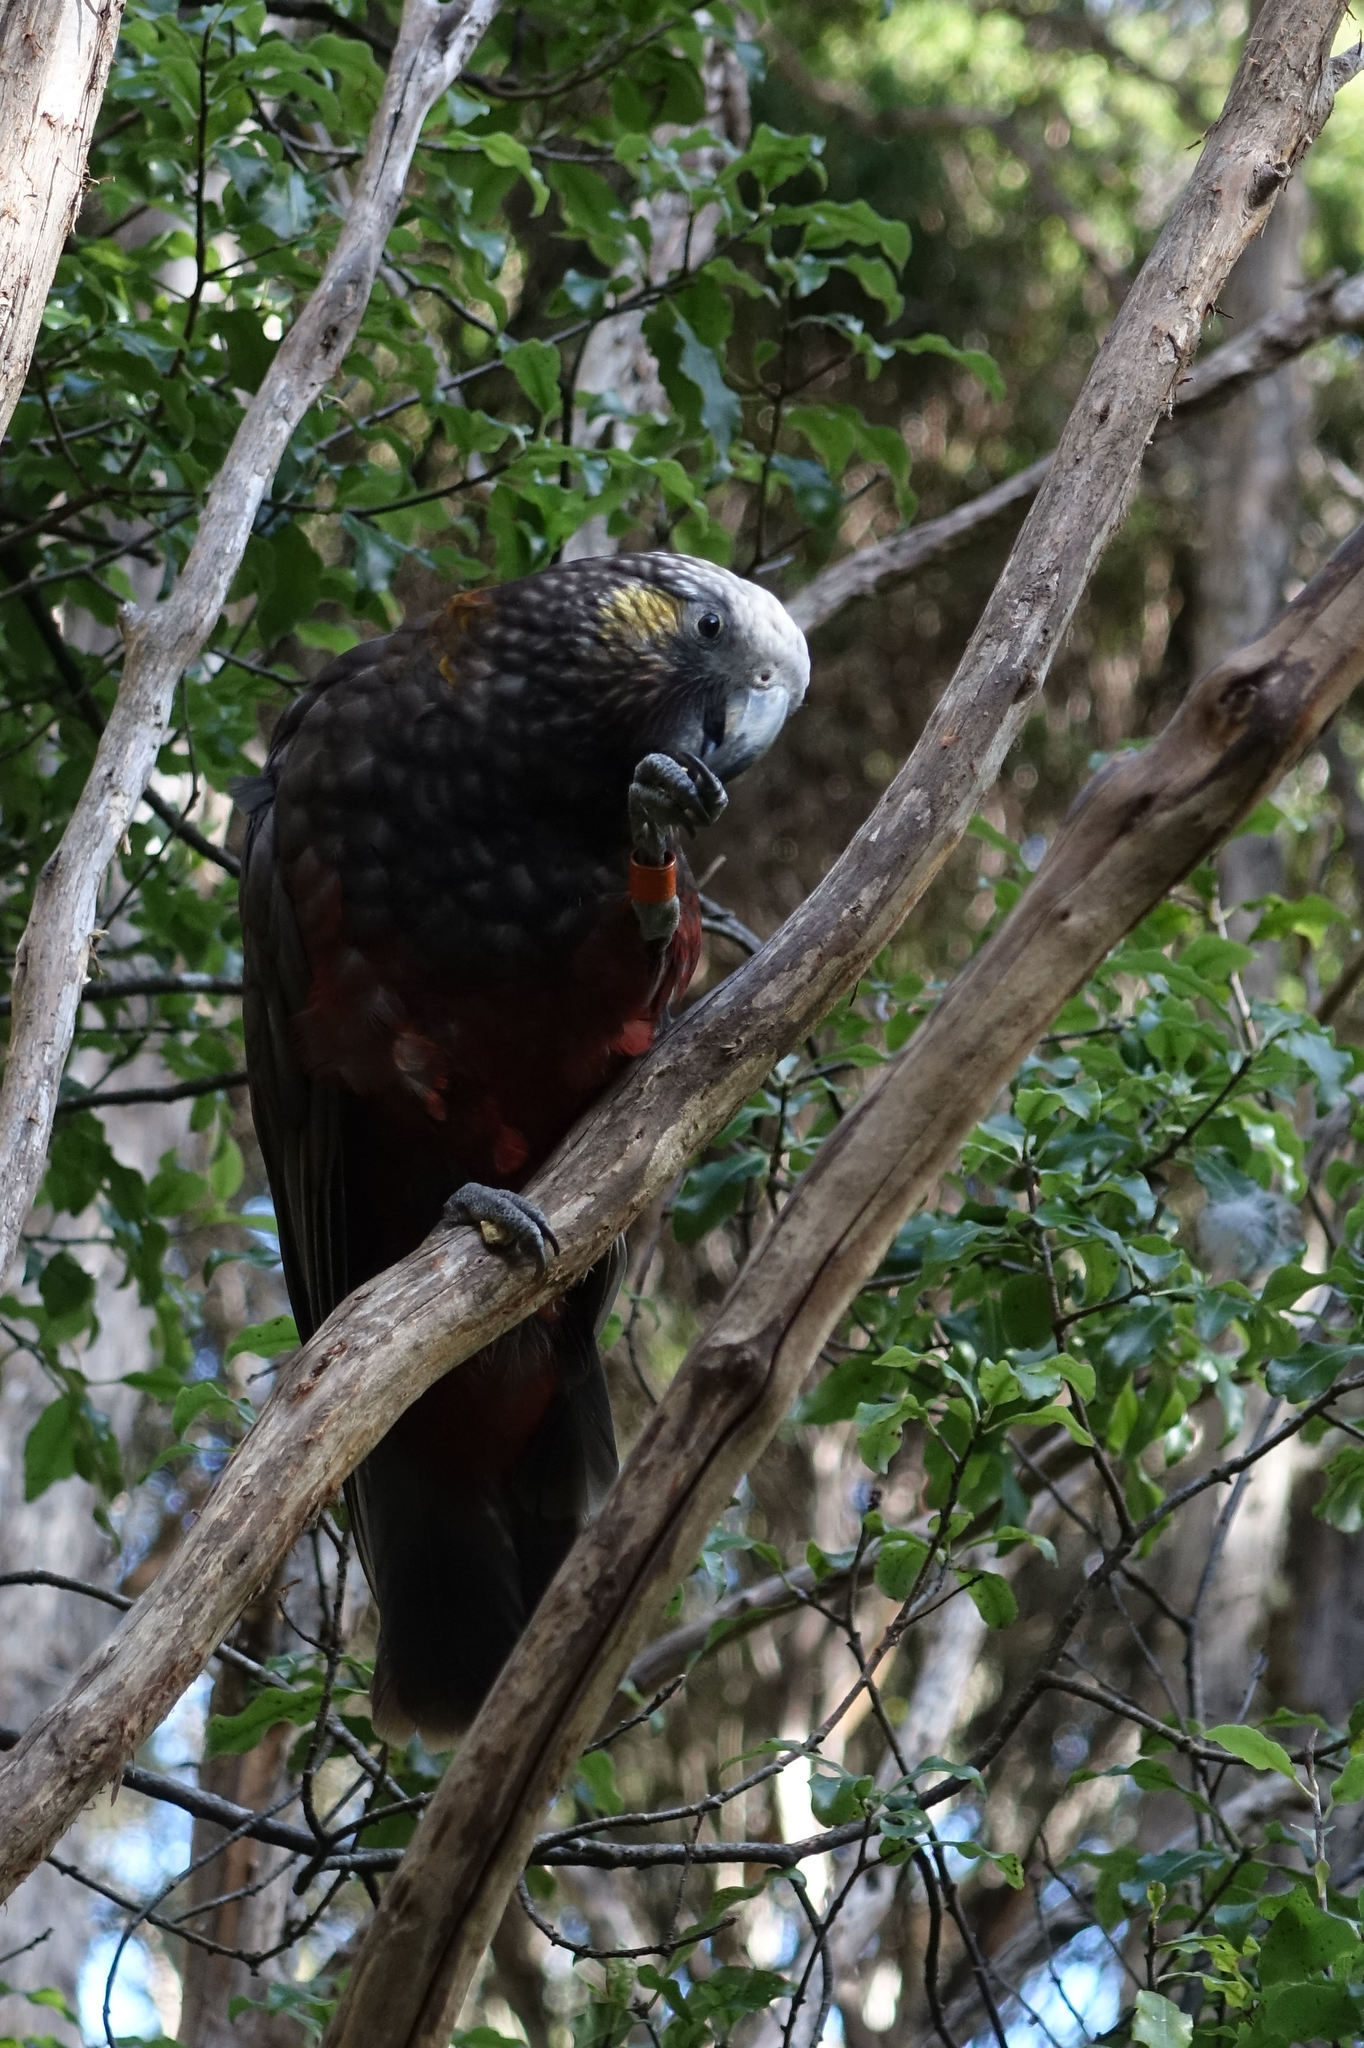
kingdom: Animalia
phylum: Chordata
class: Aves
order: Psittaciformes
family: Psittacidae
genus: Nestor
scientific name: Nestor meridionalis
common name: New zealand kaka
